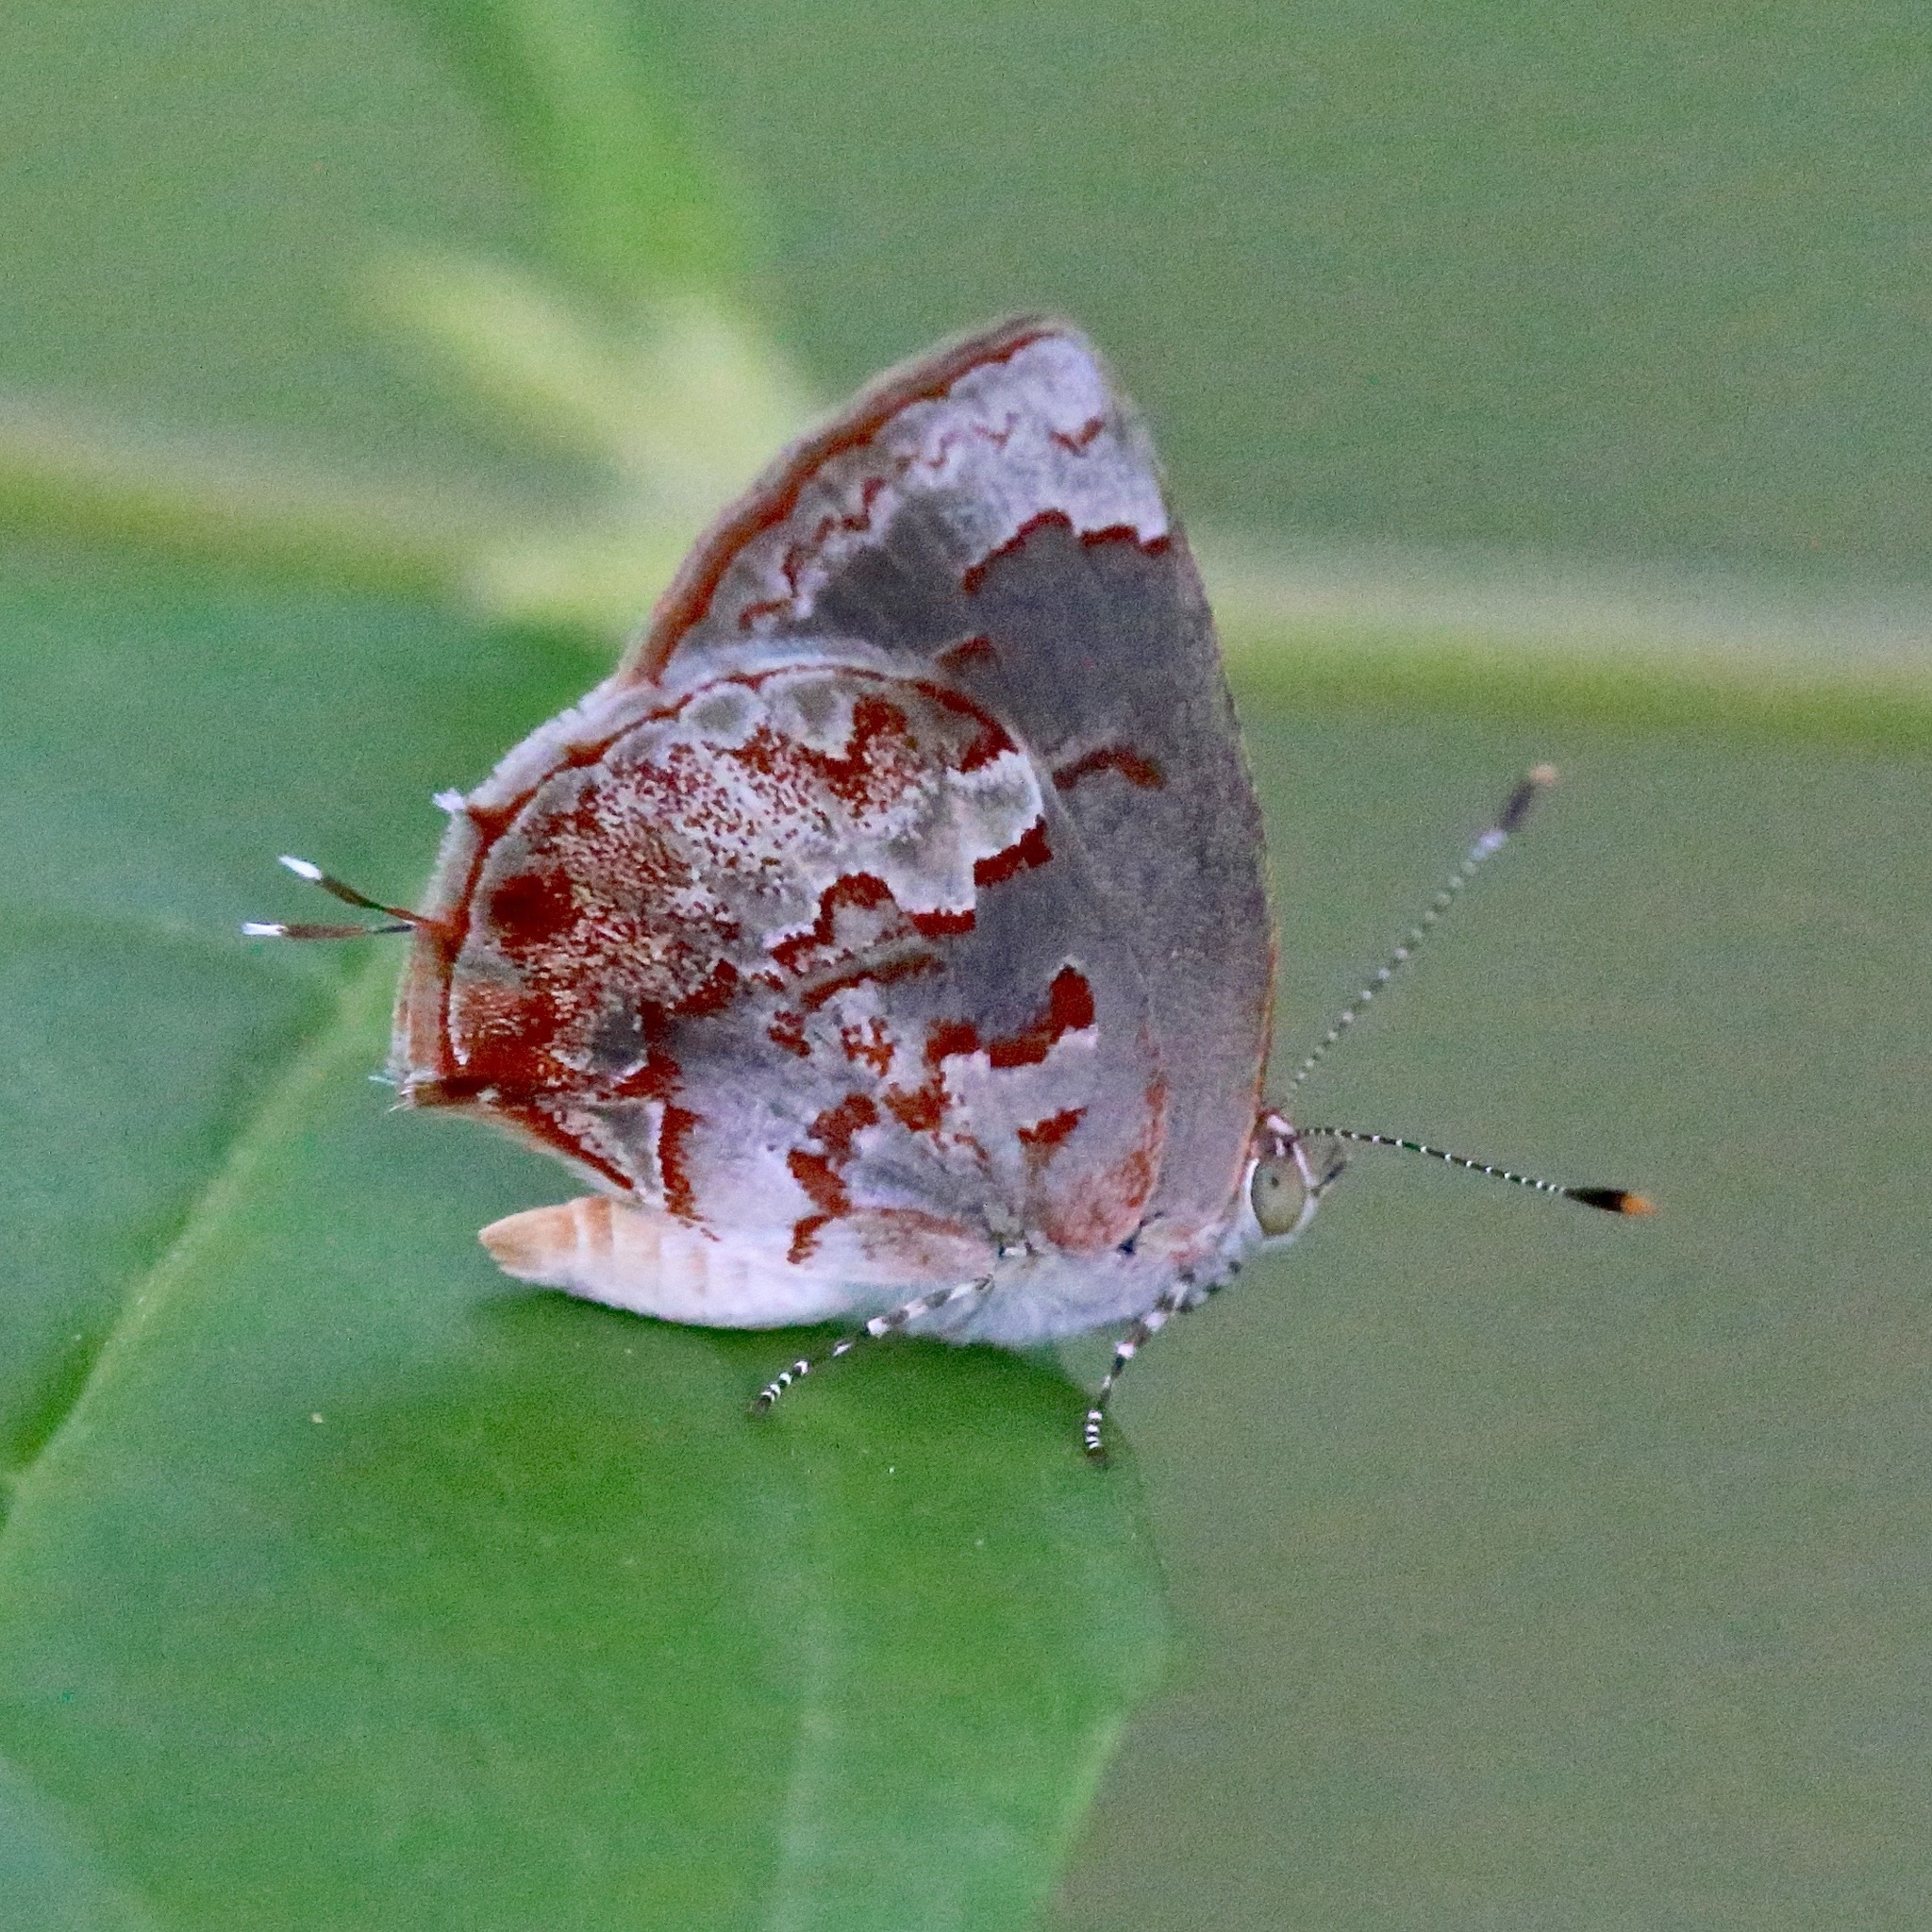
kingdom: Animalia
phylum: Arthropoda
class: Insecta
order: Lepidoptera
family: Lycaenidae
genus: Ministrymon
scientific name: Ministrymon phrutus
